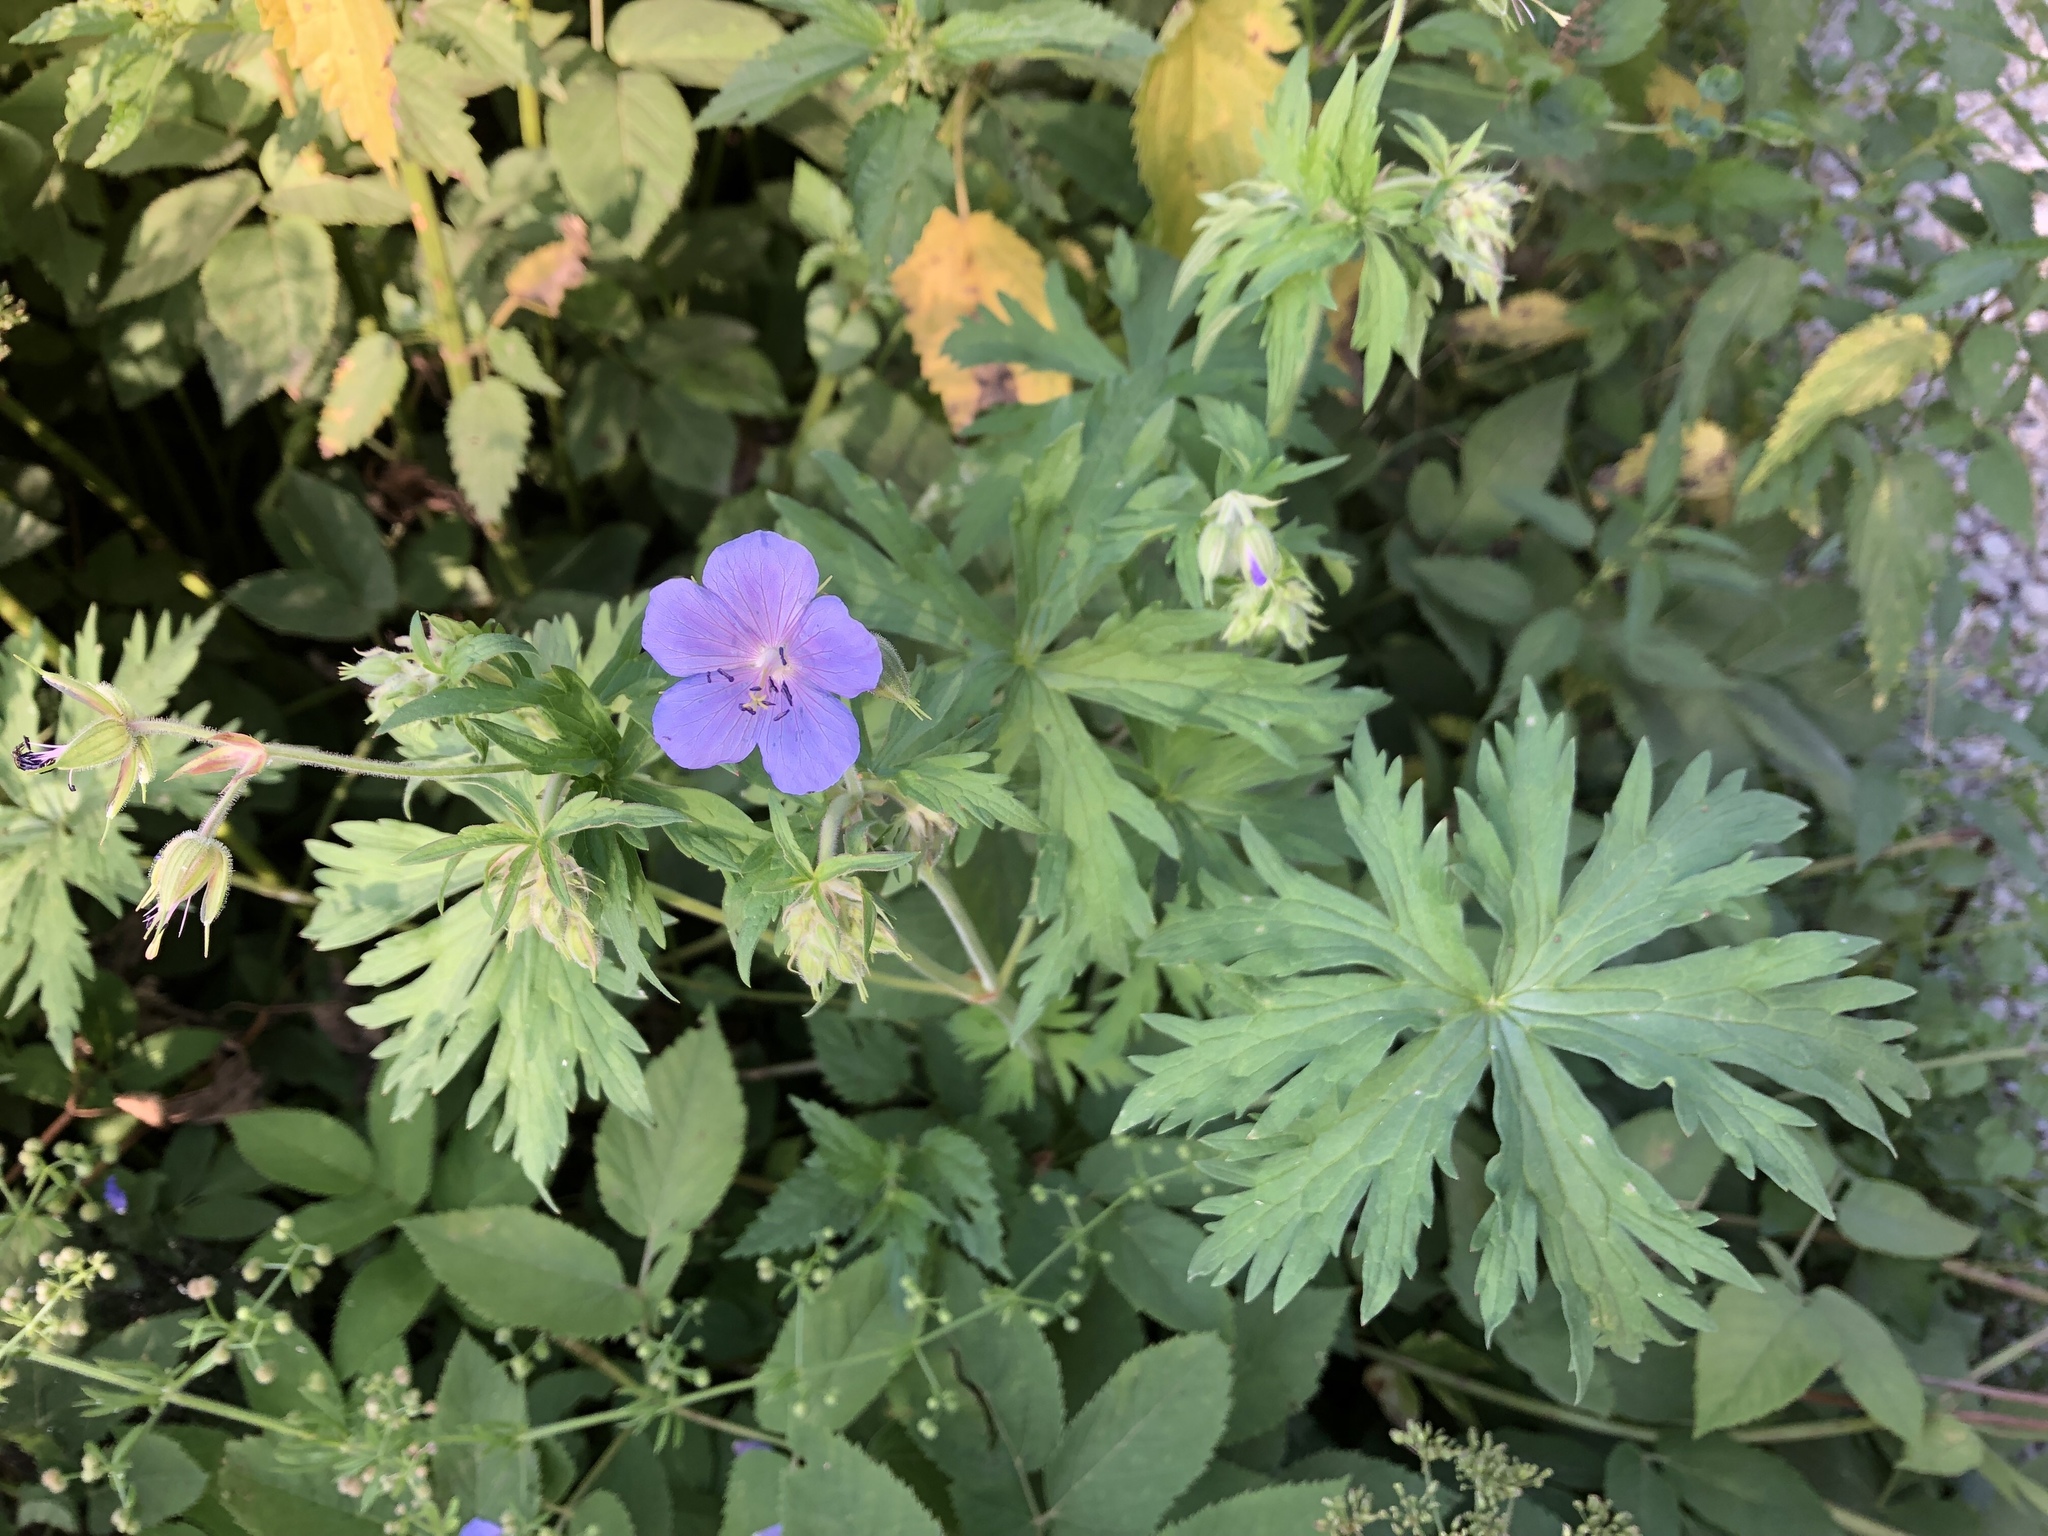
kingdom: Plantae
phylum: Tracheophyta
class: Magnoliopsida
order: Geraniales
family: Geraniaceae
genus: Geranium
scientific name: Geranium pratense
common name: Meadow crane's-bill
